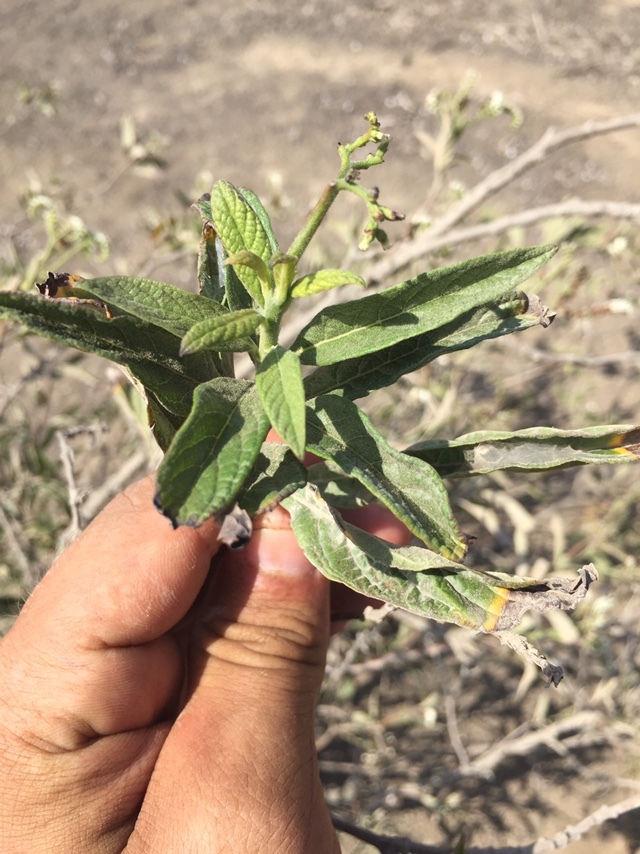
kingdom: Plantae
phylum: Tracheophyta
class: Magnoliopsida
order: Boraginales
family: Heliotropiaceae
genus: Heliotropium
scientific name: Heliotropium angiospermum
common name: Eye bright
